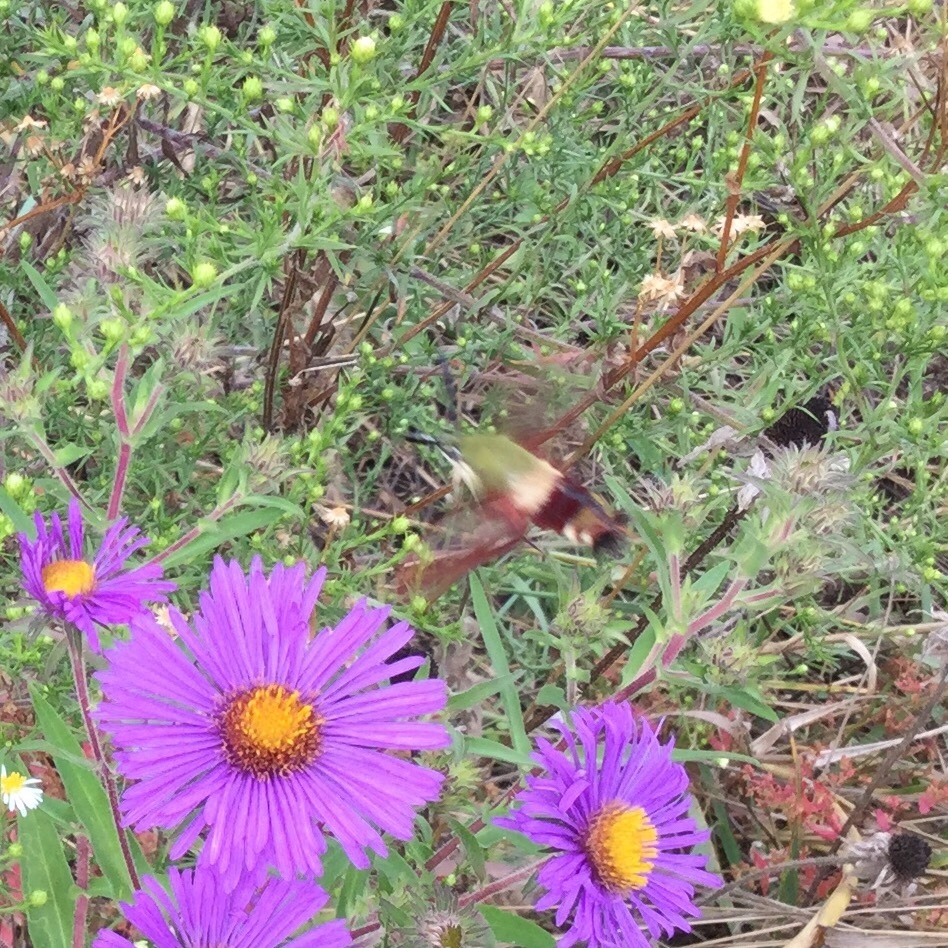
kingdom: Animalia
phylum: Arthropoda
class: Insecta
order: Lepidoptera
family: Sphingidae
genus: Hemaris
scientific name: Hemaris thysbe
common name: Common clear-wing
